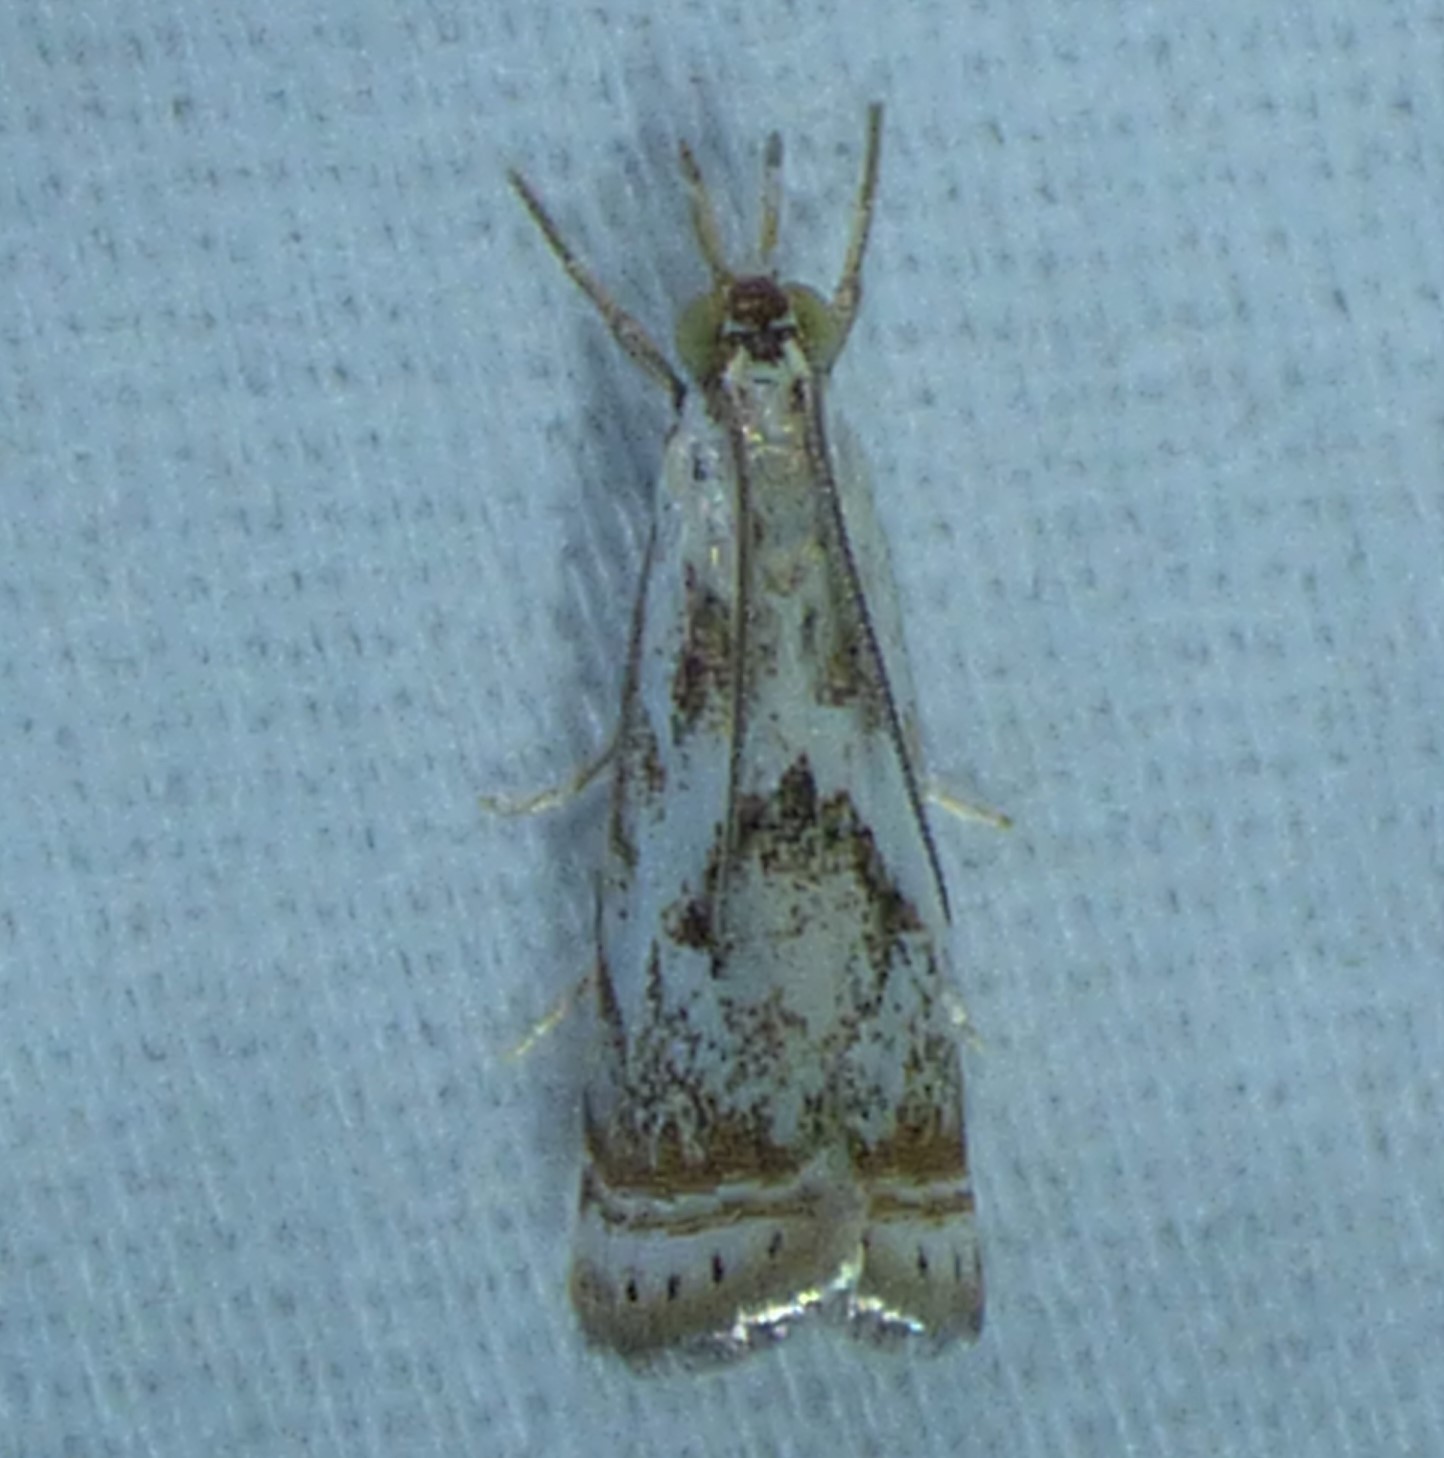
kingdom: Animalia
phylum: Arthropoda
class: Insecta
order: Lepidoptera
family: Crambidae
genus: Microcrambus
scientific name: Microcrambus elegans
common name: Elegant grass-veneer
